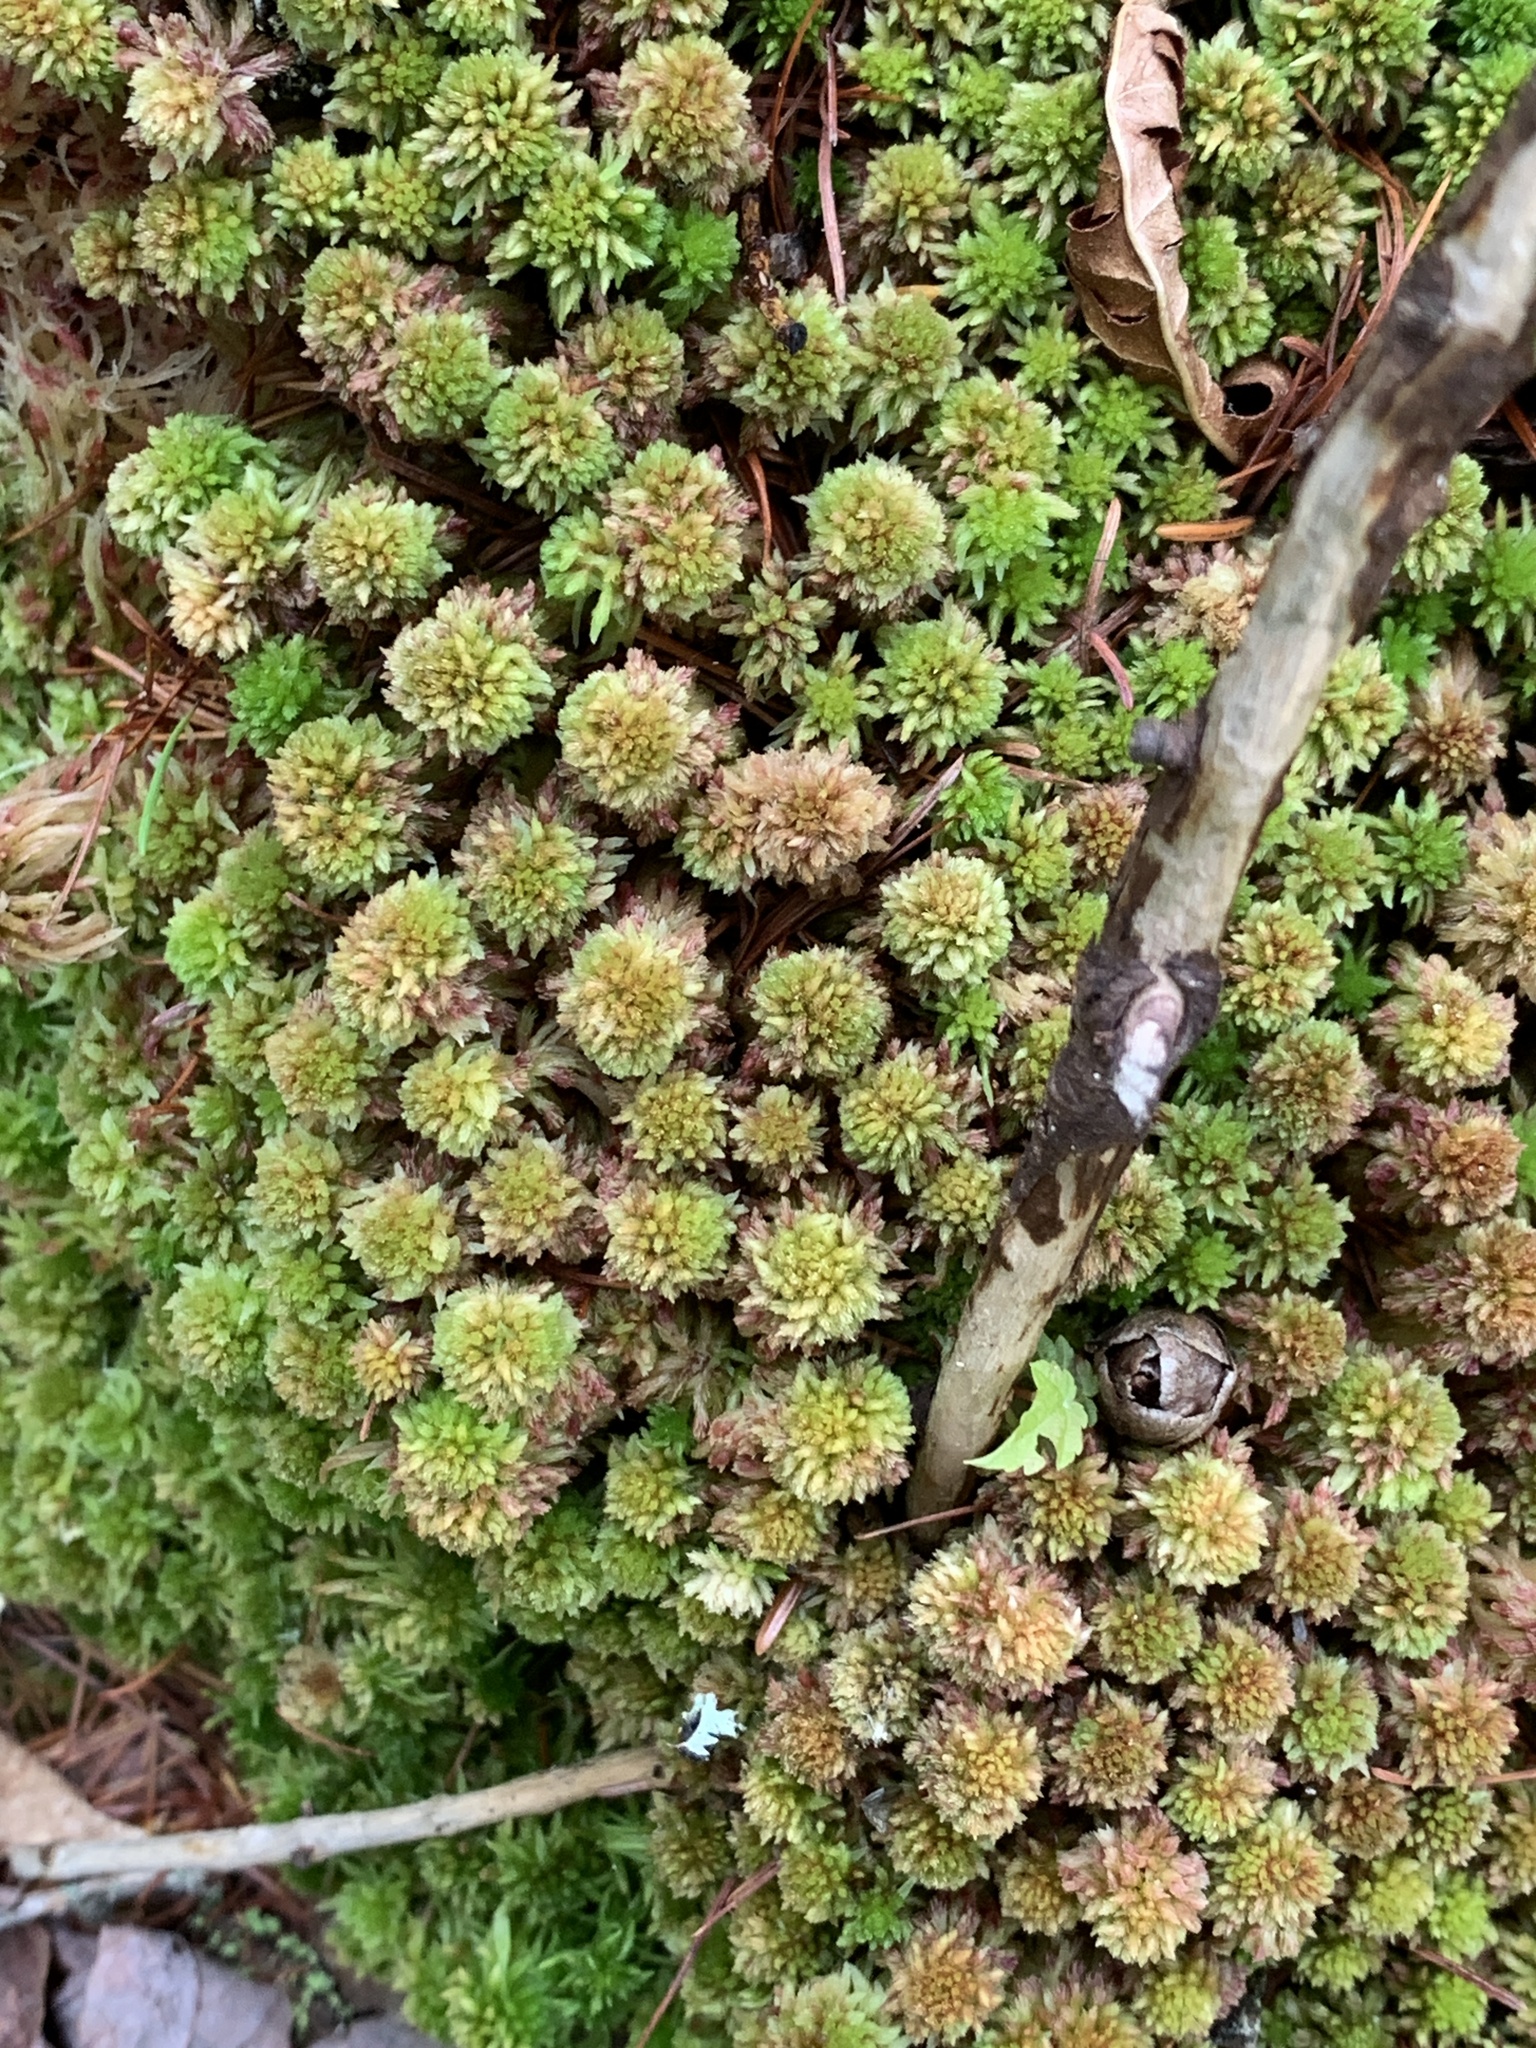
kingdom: Plantae
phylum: Bryophyta
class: Sphagnopsida
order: Sphagnales
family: Sphagnaceae
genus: Sphagnum
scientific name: Sphagnum capillifolium
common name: Small red peat moss
